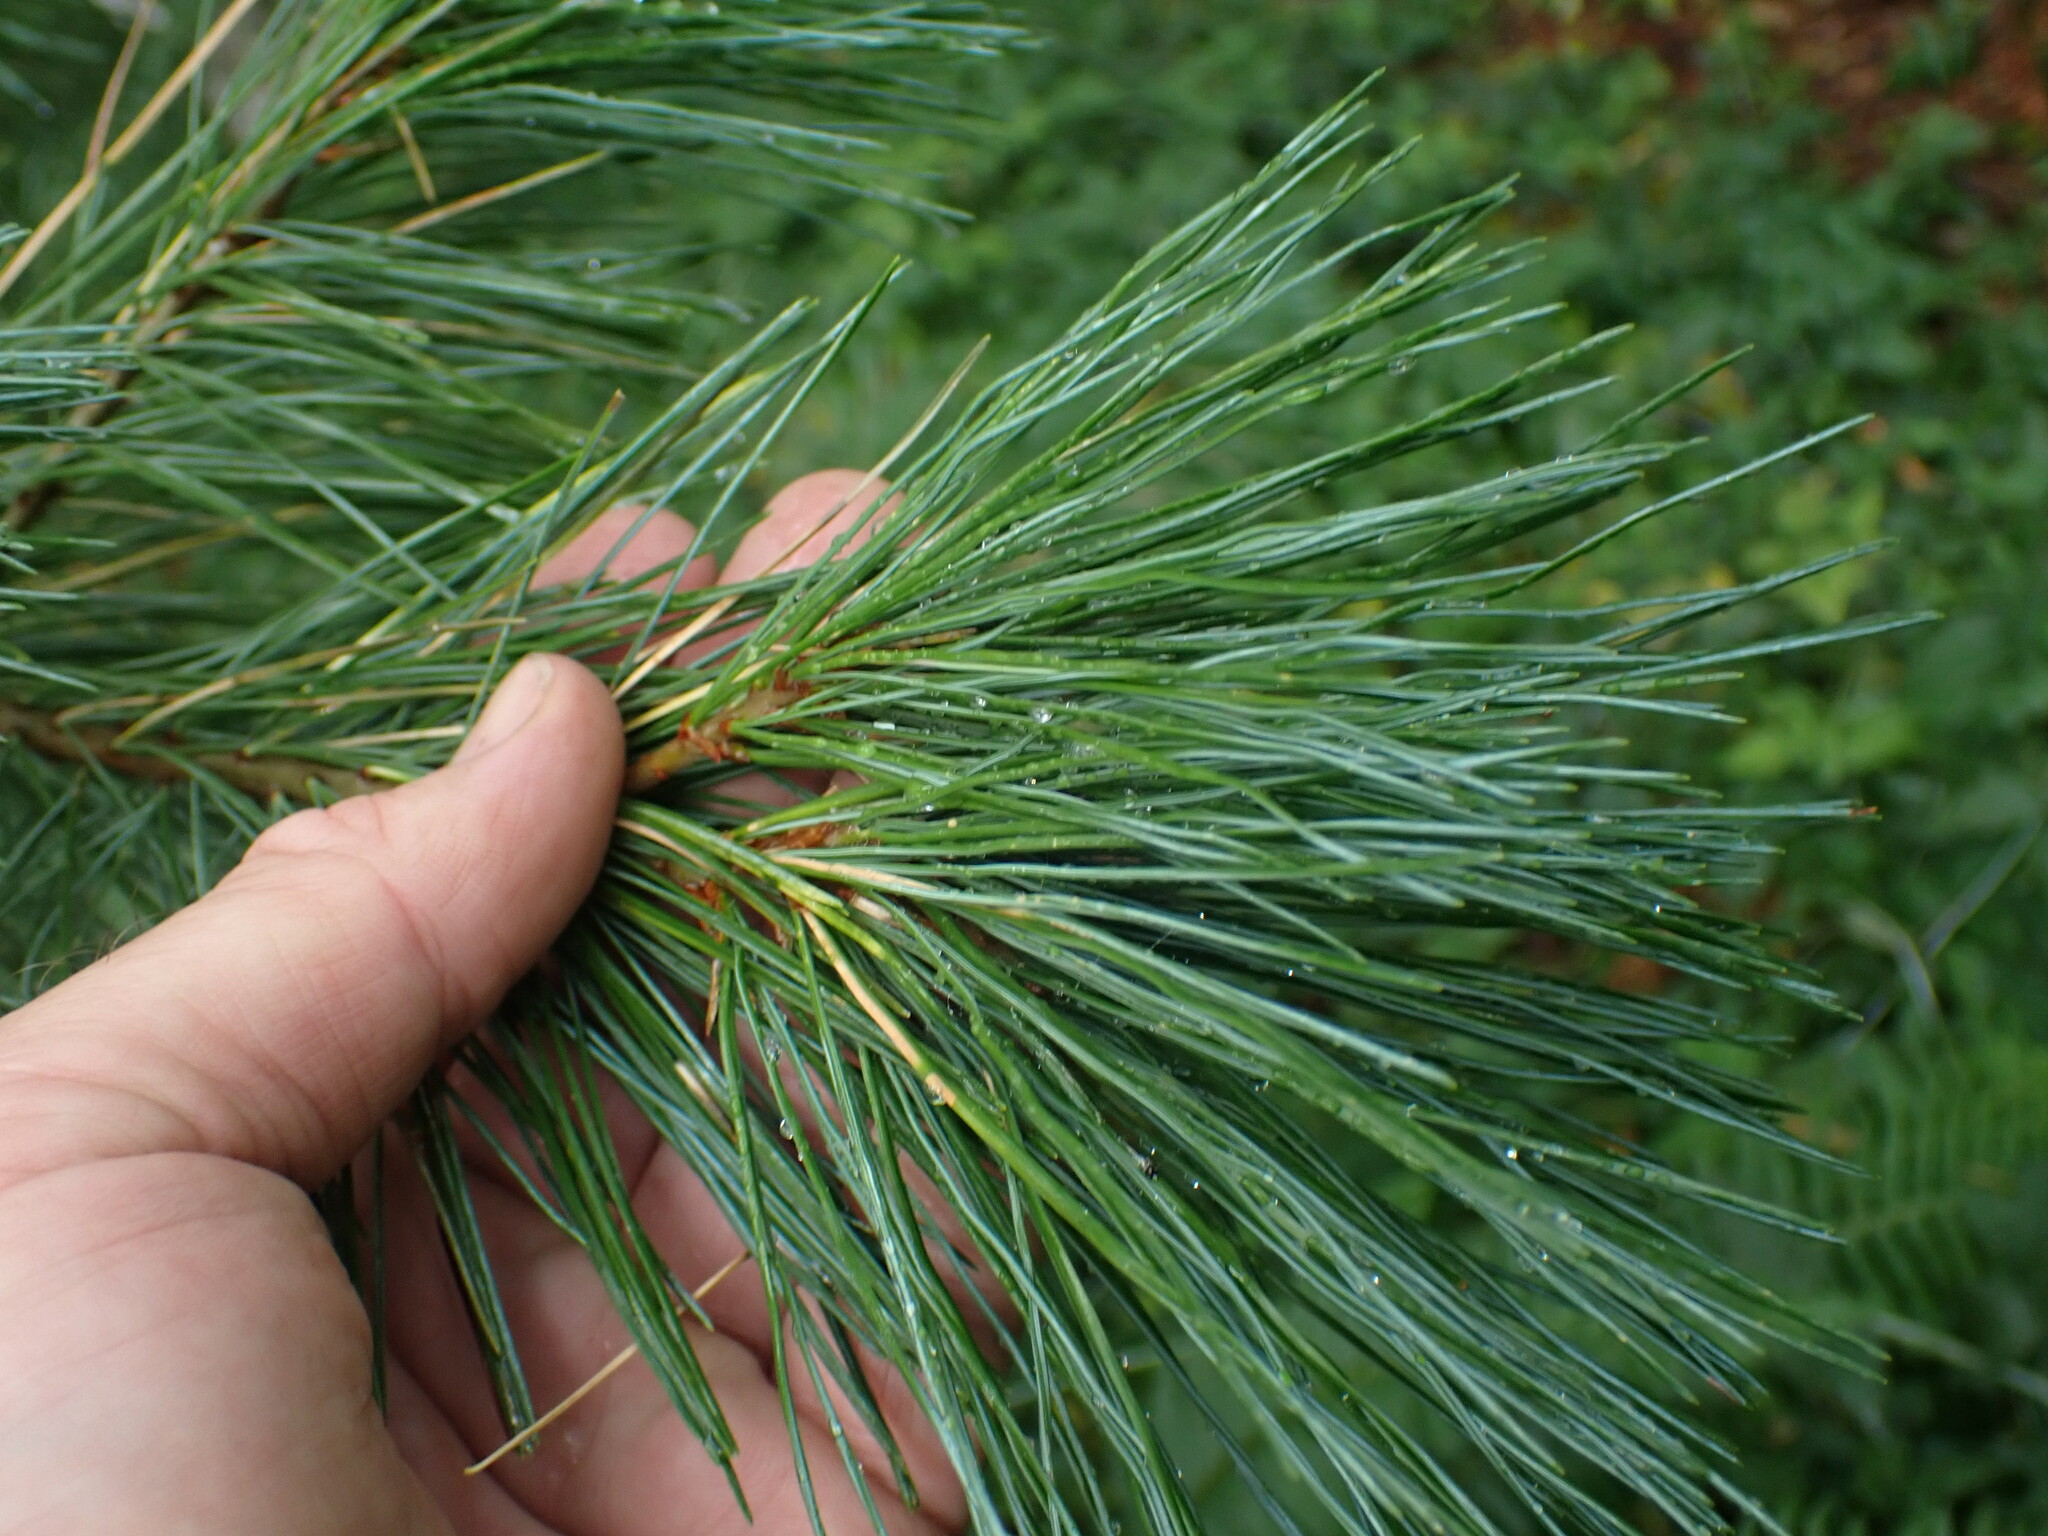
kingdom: Plantae
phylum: Tracheophyta
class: Pinopsida
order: Pinales
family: Pinaceae
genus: Pinus
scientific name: Pinus monticola
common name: Western white pine
